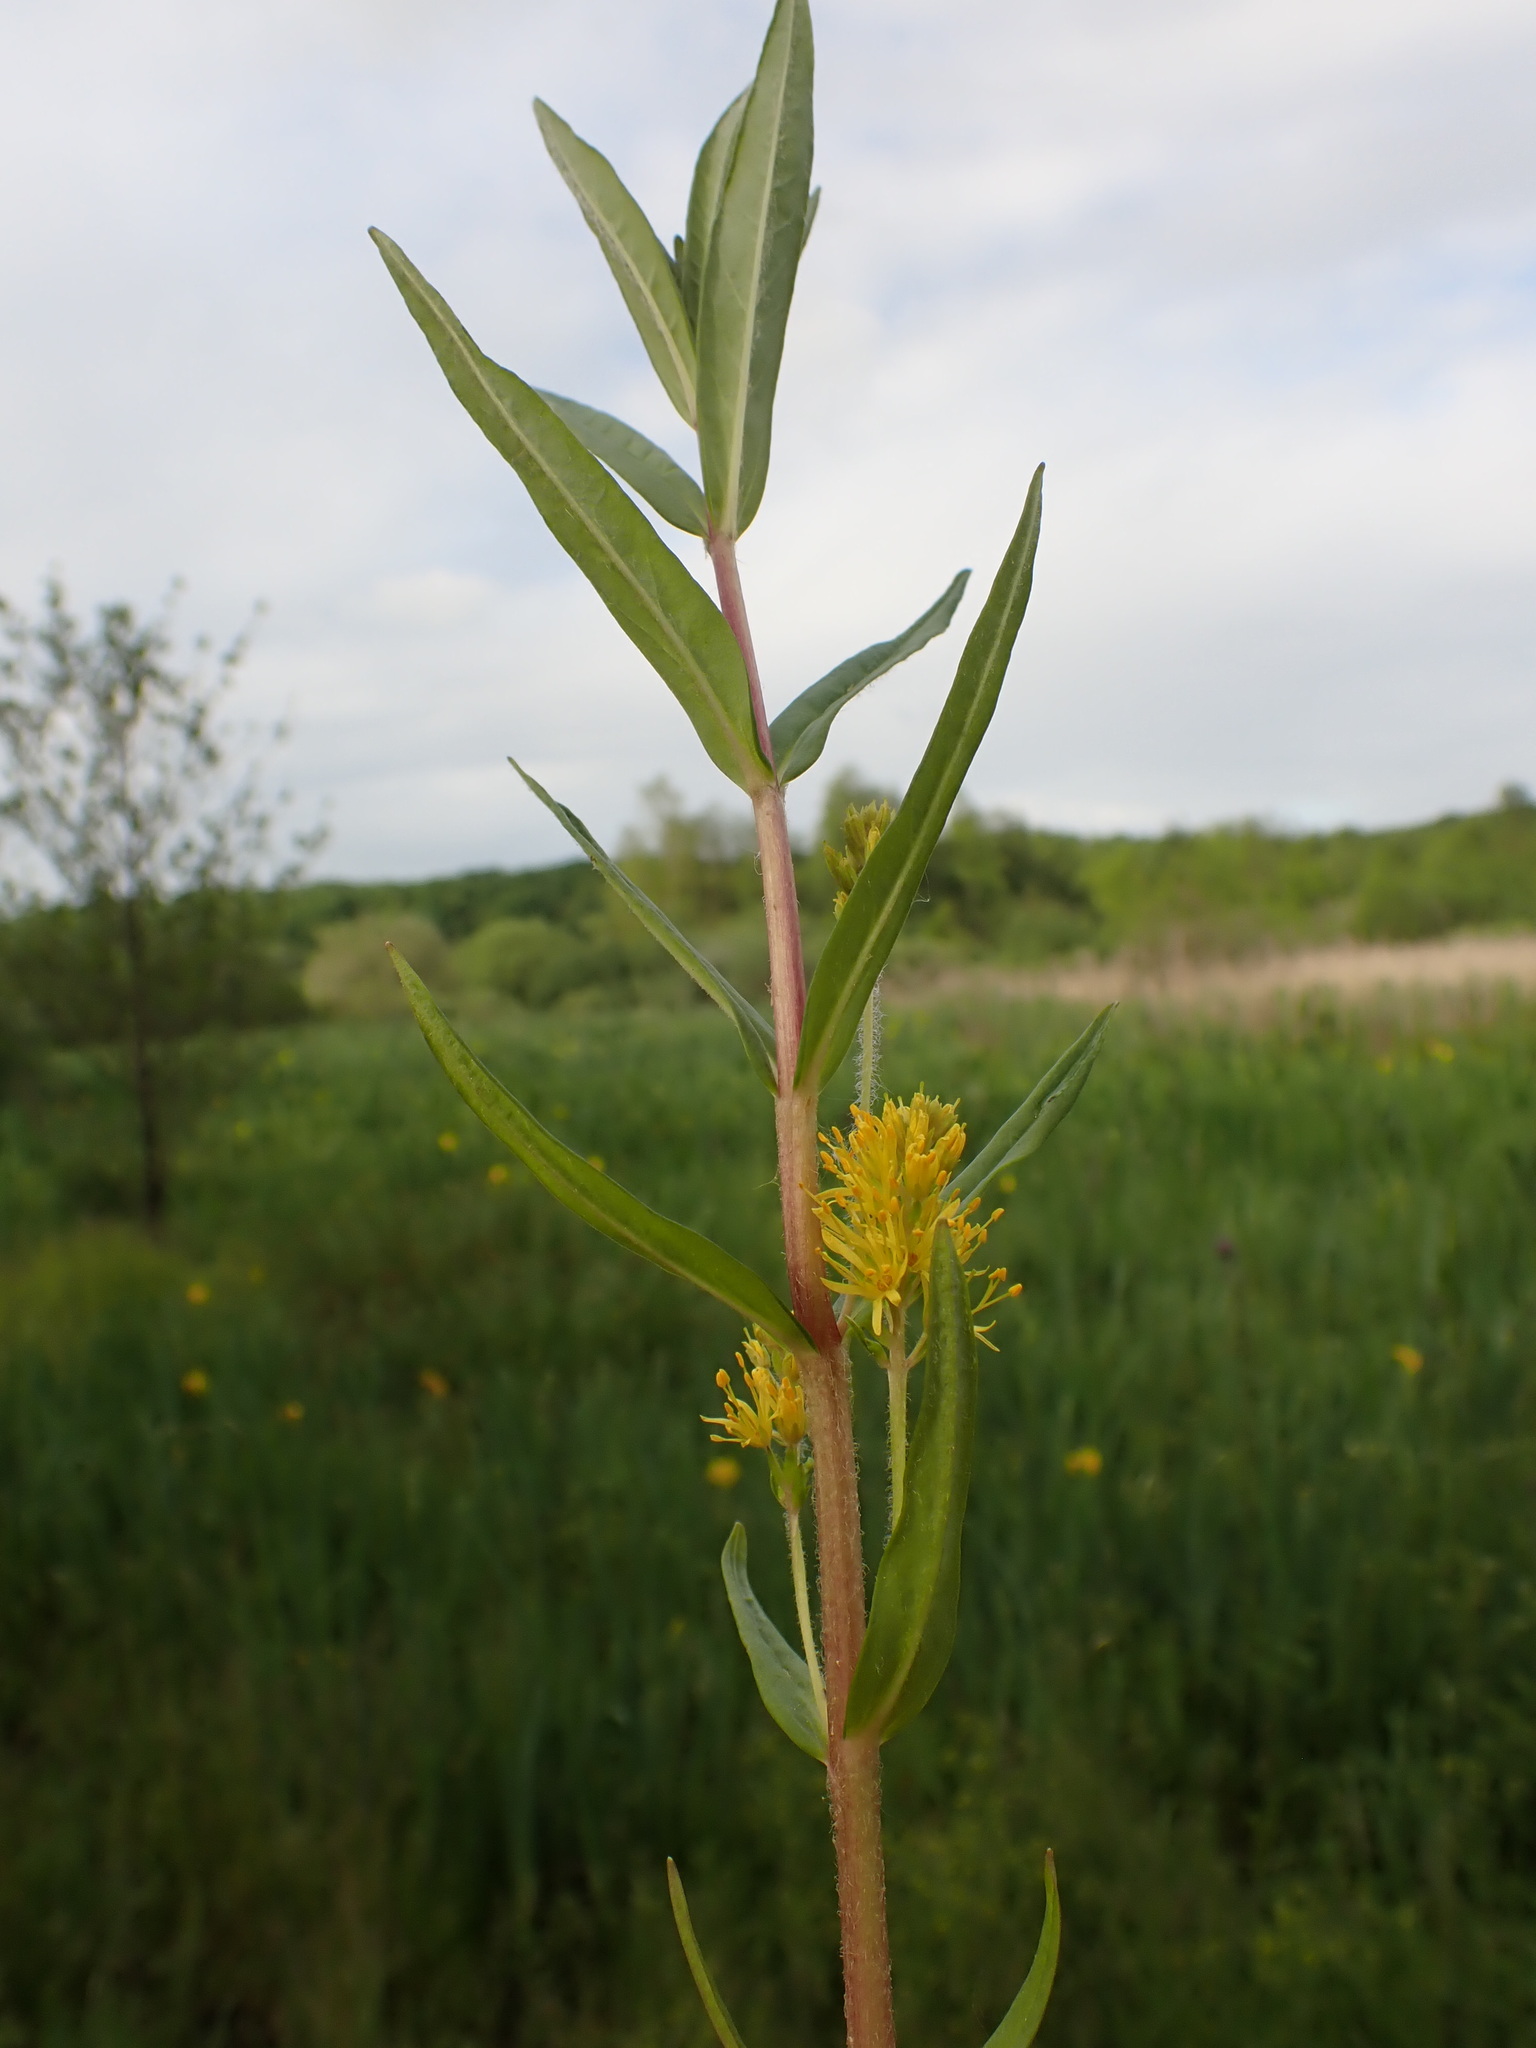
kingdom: Plantae
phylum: Tracheophyta
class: Magnoliopsida
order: Ericales
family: Primulaceae
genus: Lysimachia
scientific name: Lysimachia thyrsiflora
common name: Tufted loosestrife
